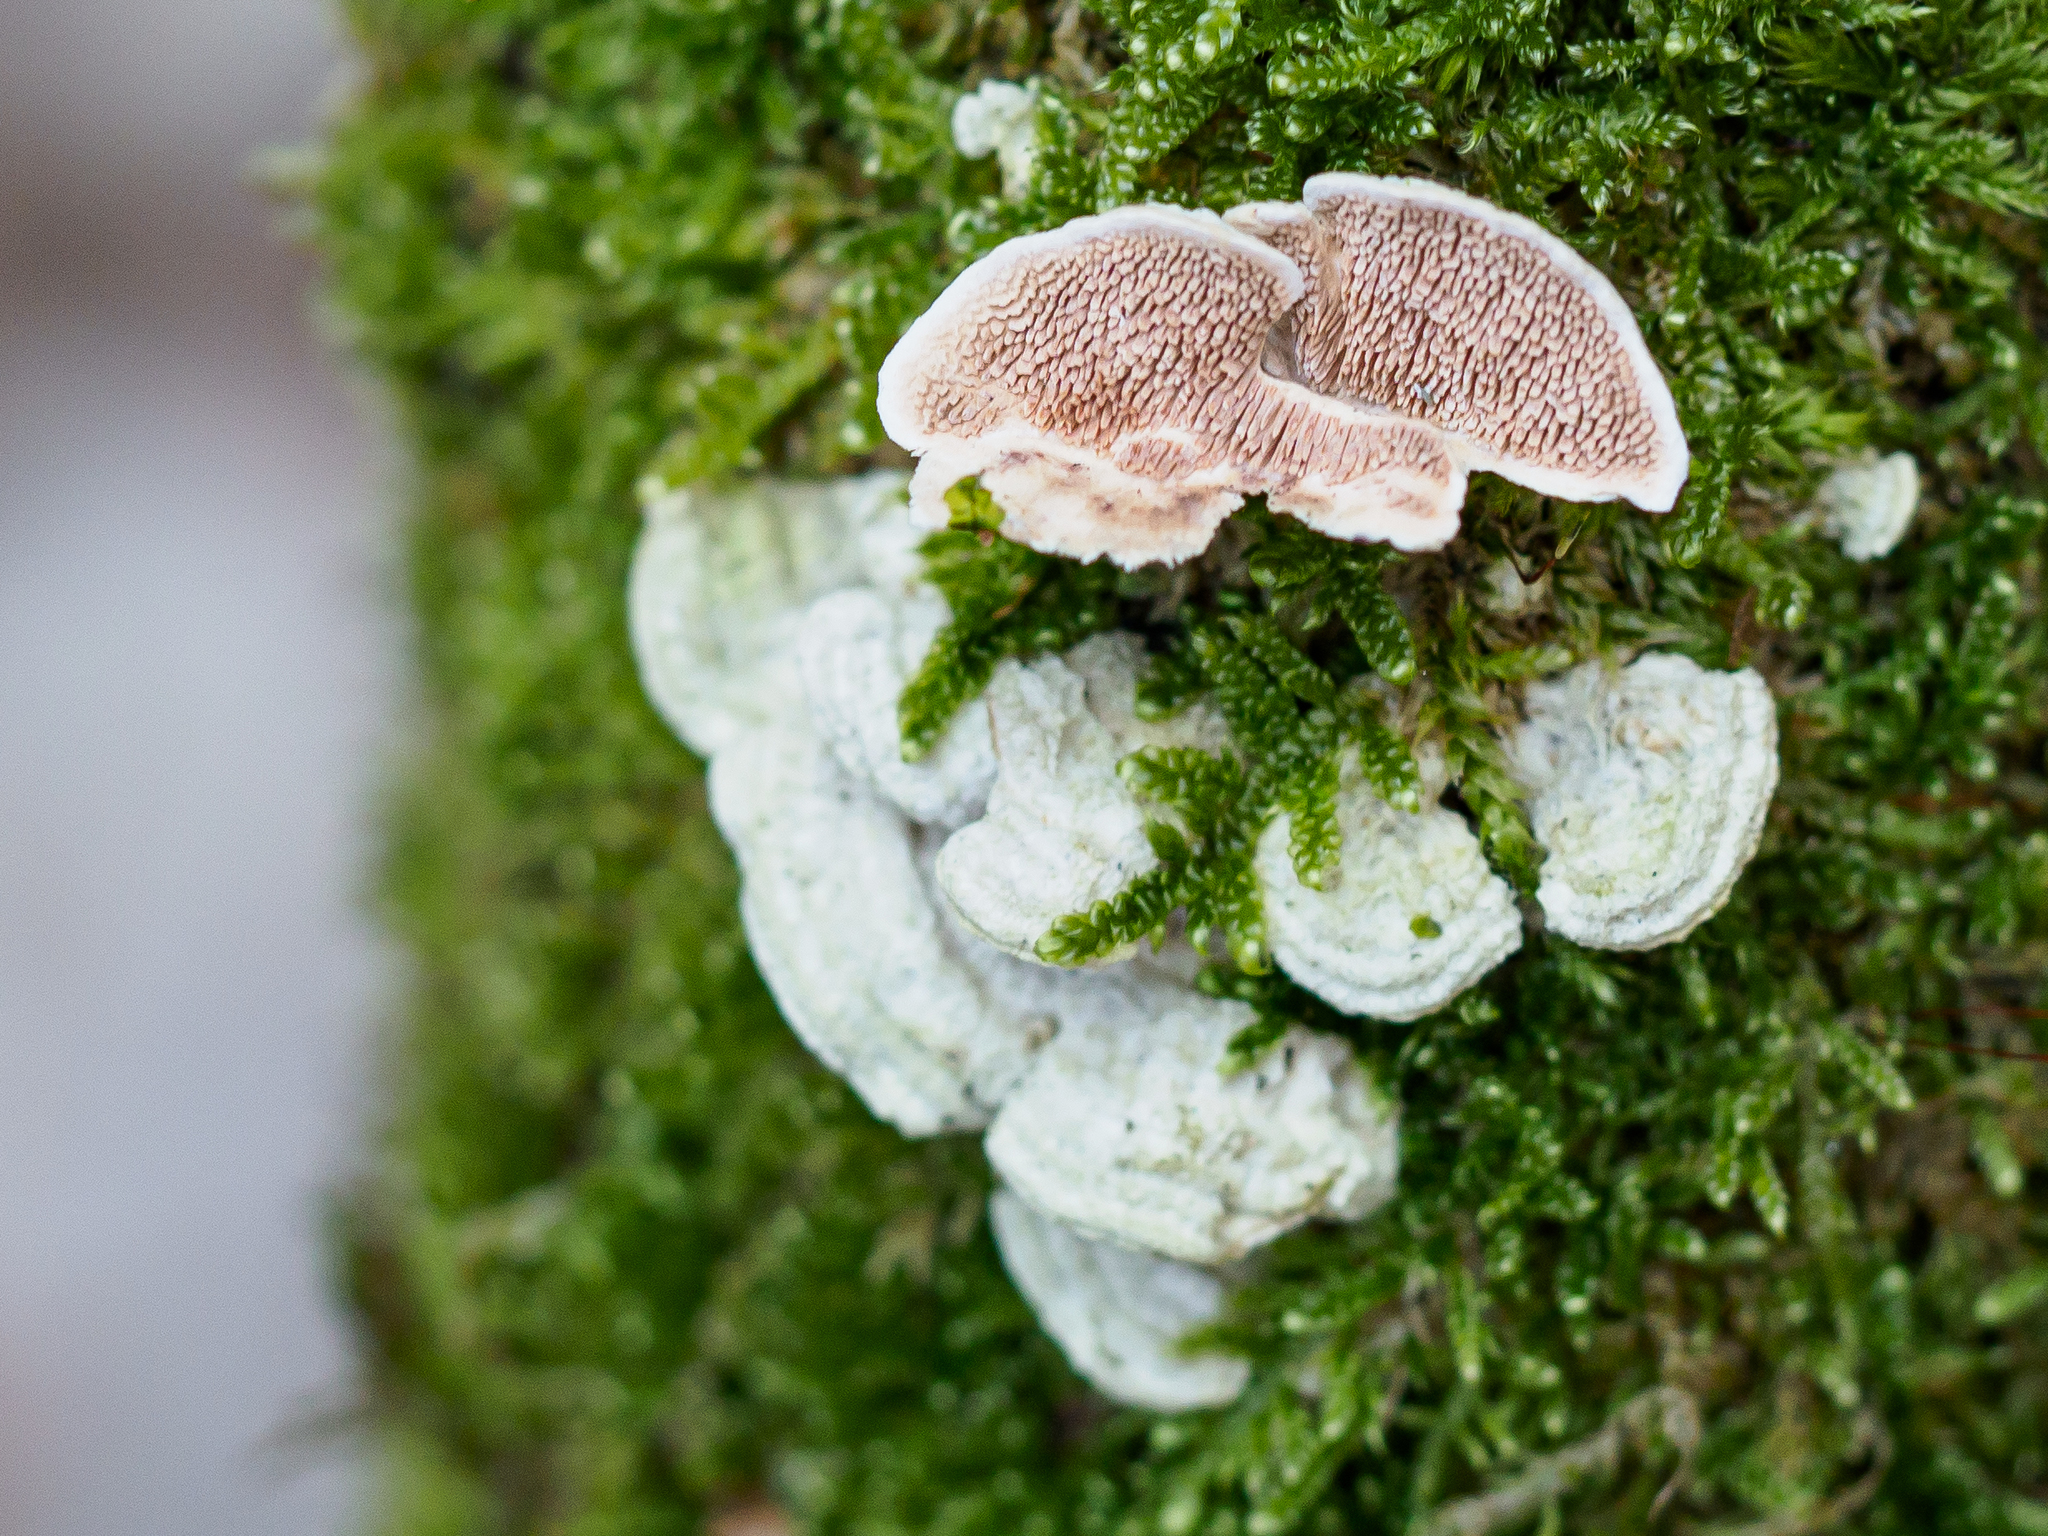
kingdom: Fungi
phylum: Basidiomycota
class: Agaricomycetes
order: Polyporales
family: Steccherinaceae
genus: Steccherinum
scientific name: Steccherinum bourdotii
